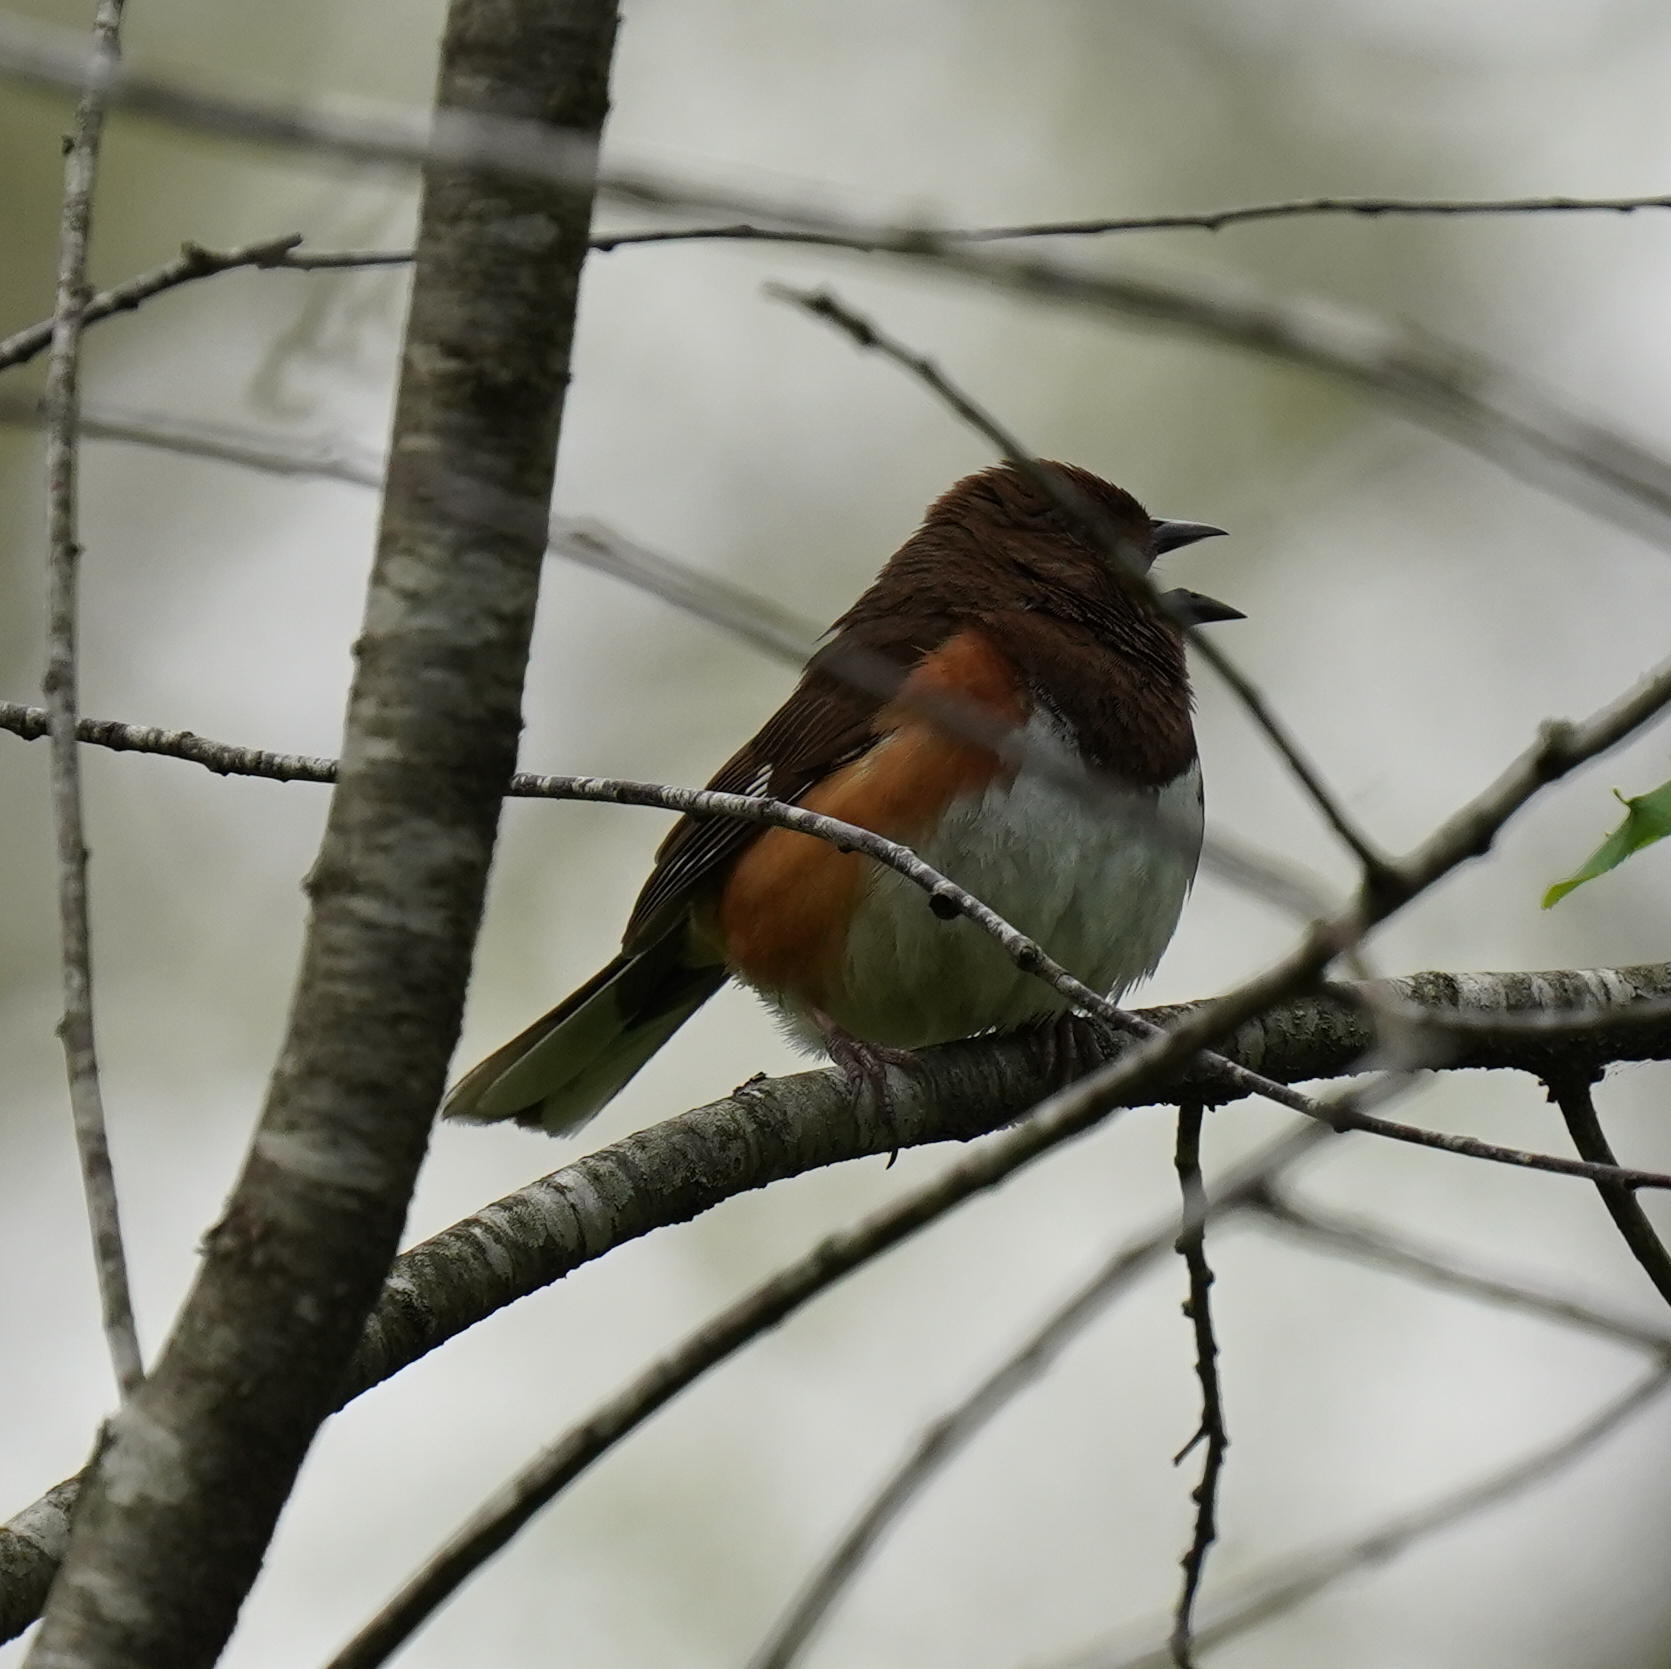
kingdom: Animalia
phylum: Chordata
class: Aves
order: Passeriformes
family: Passerellidae
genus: Pipilo
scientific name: Pipilo erythrophthalmus
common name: Eastern towhee
